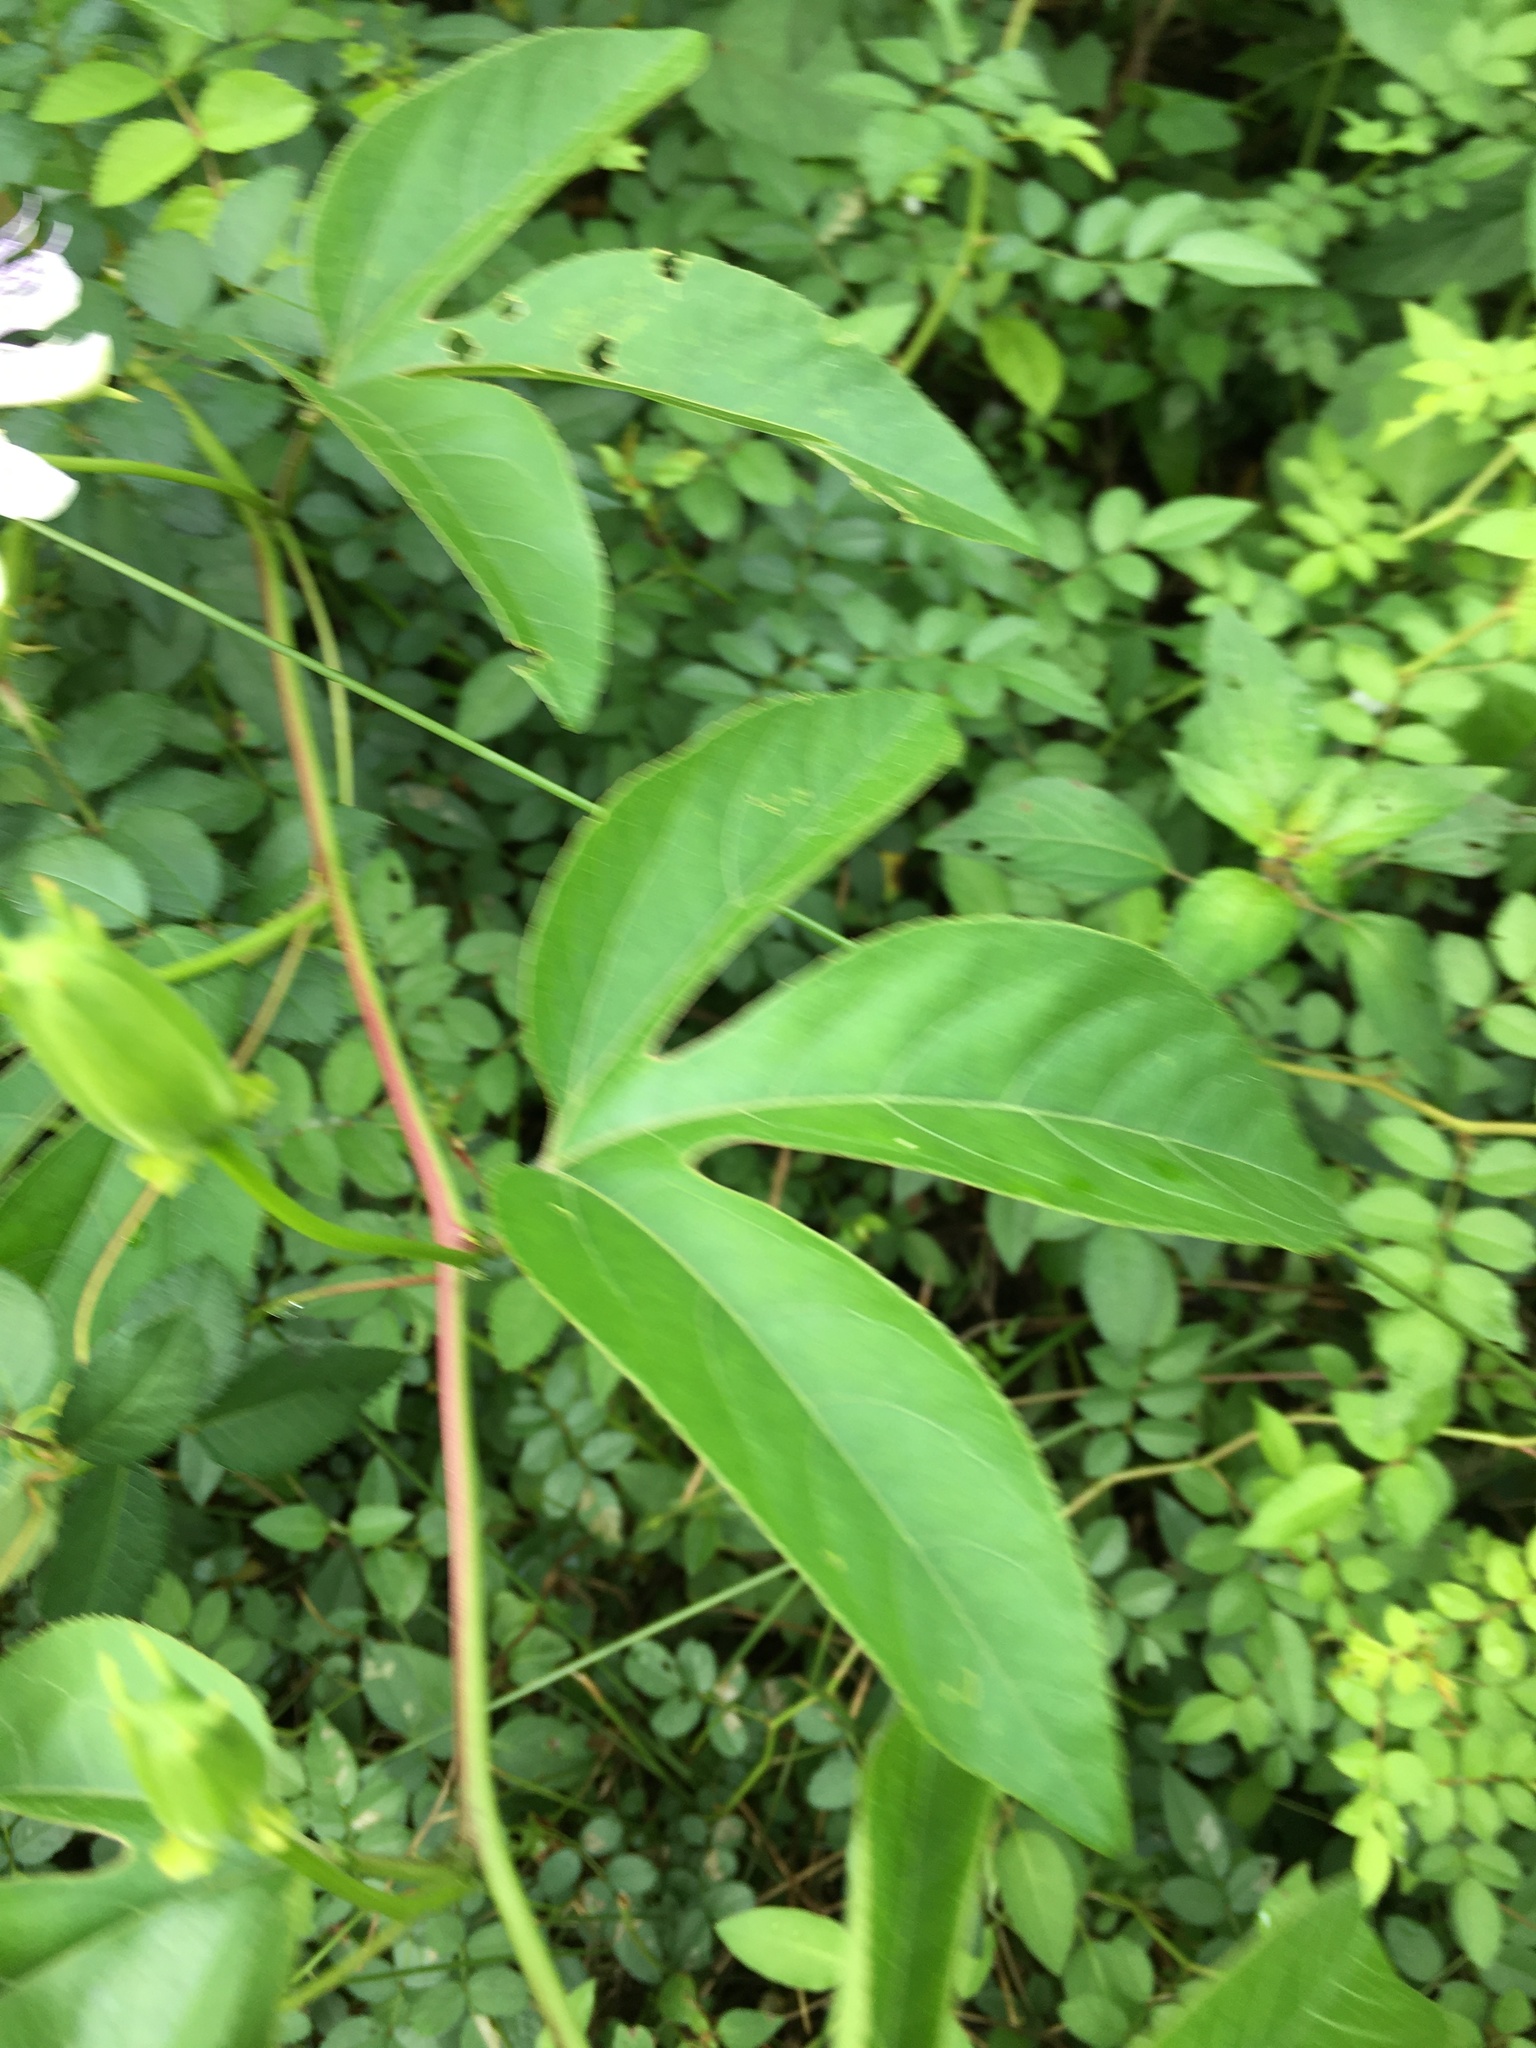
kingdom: Plantae
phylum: Tracheophyta
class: Magnoliopsida
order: Malpighiales
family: Passifloraceae
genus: Passiflora
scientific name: Passiflora incarnata
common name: Apricot-vine
